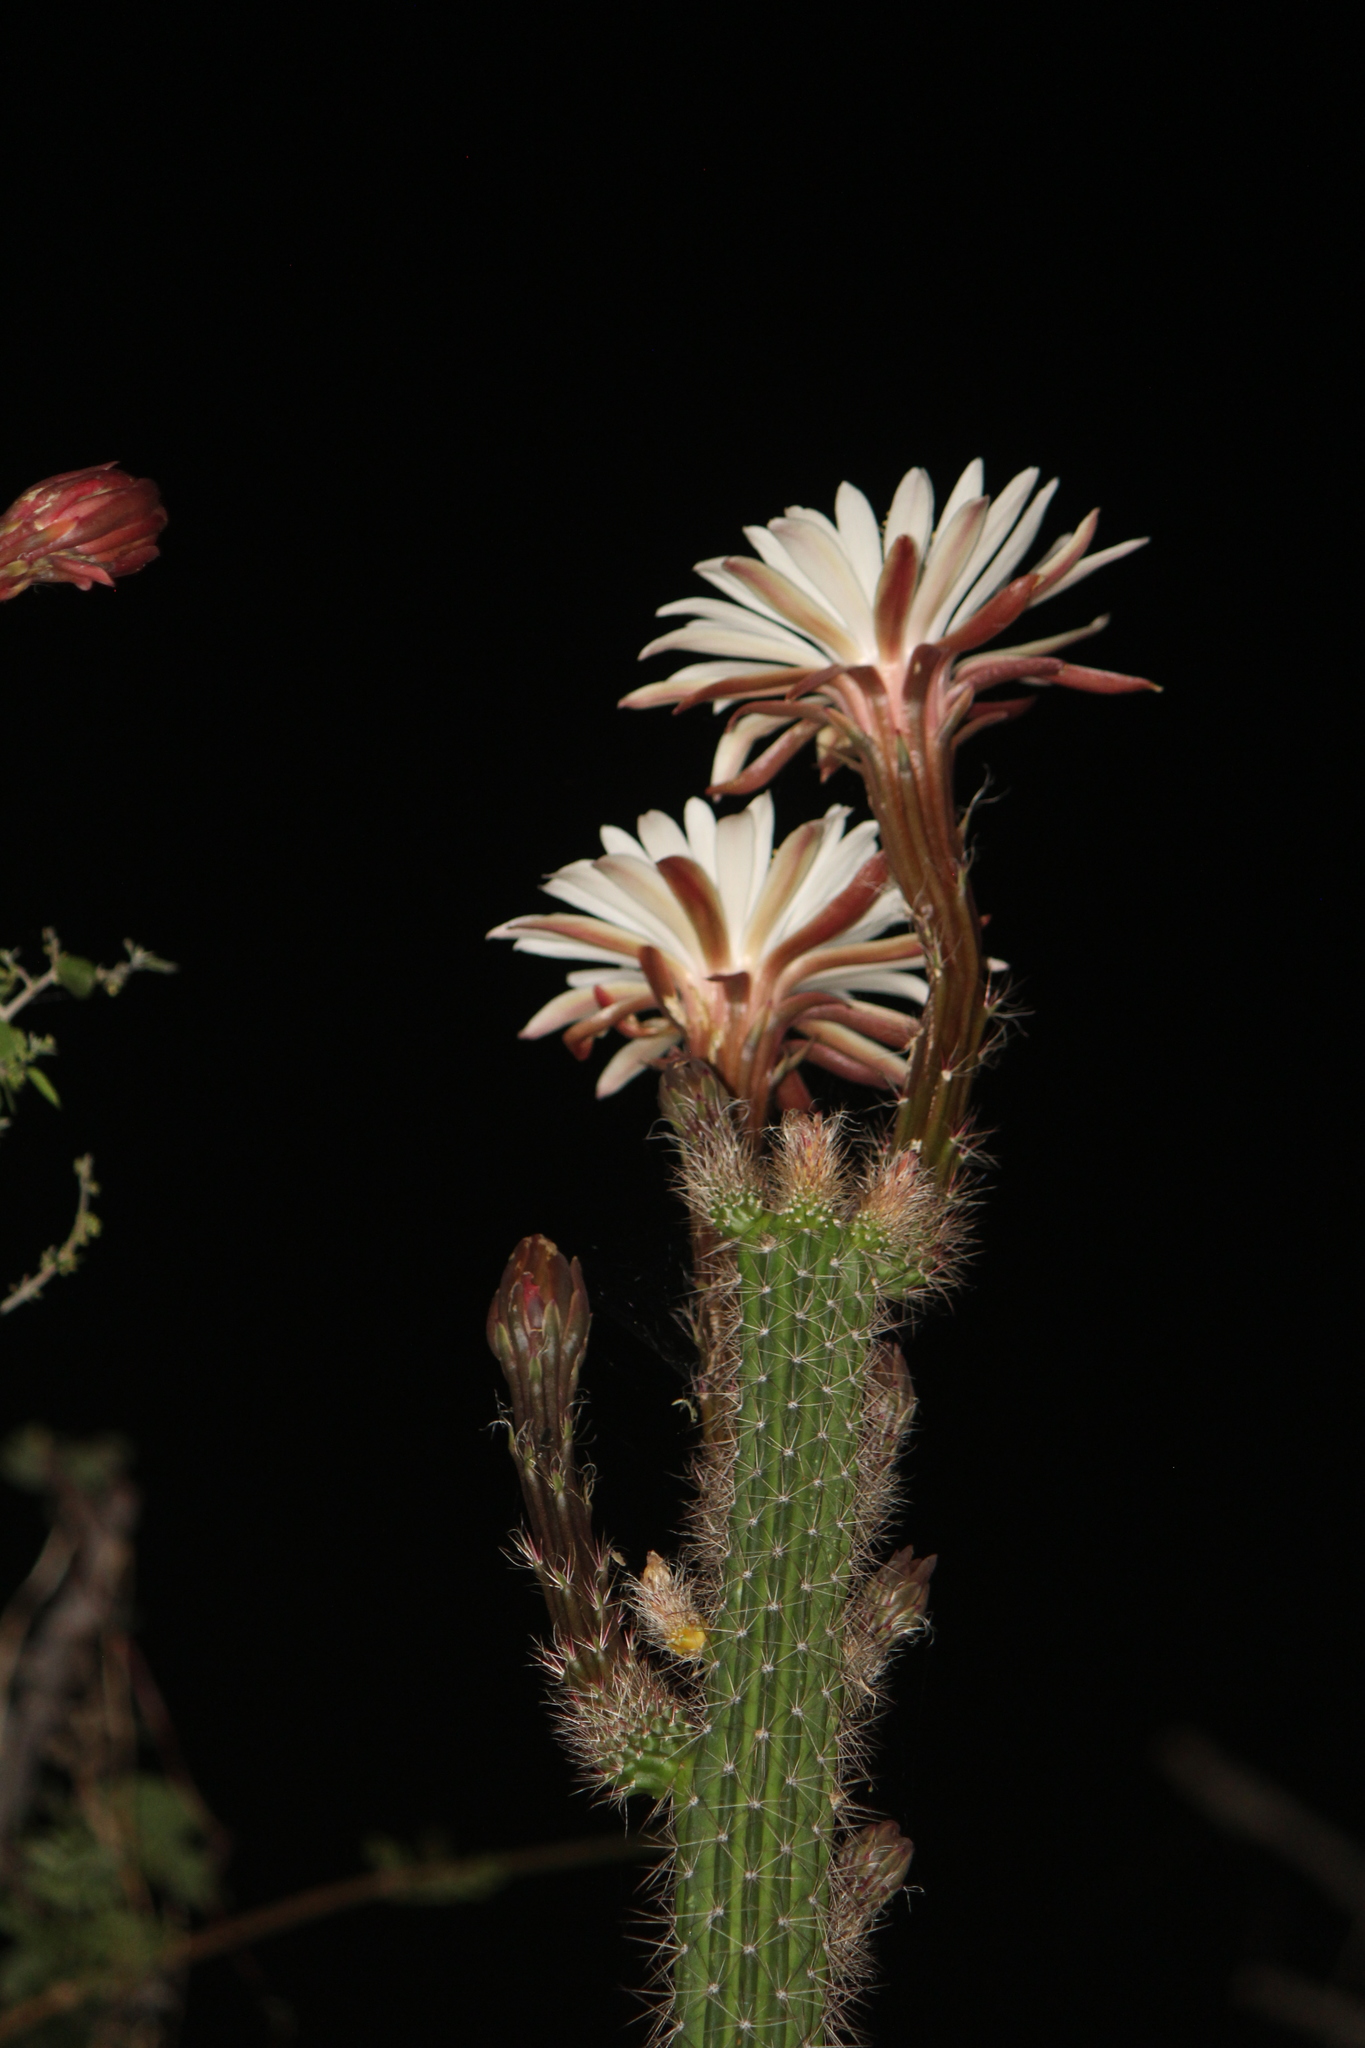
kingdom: Plantae
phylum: Tracheophyta
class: Magnoliopsida
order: Caryophyllales
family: Cactaceae
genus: Peniocereus
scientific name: Peniocereus serpentinus
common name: Serpent cactus
